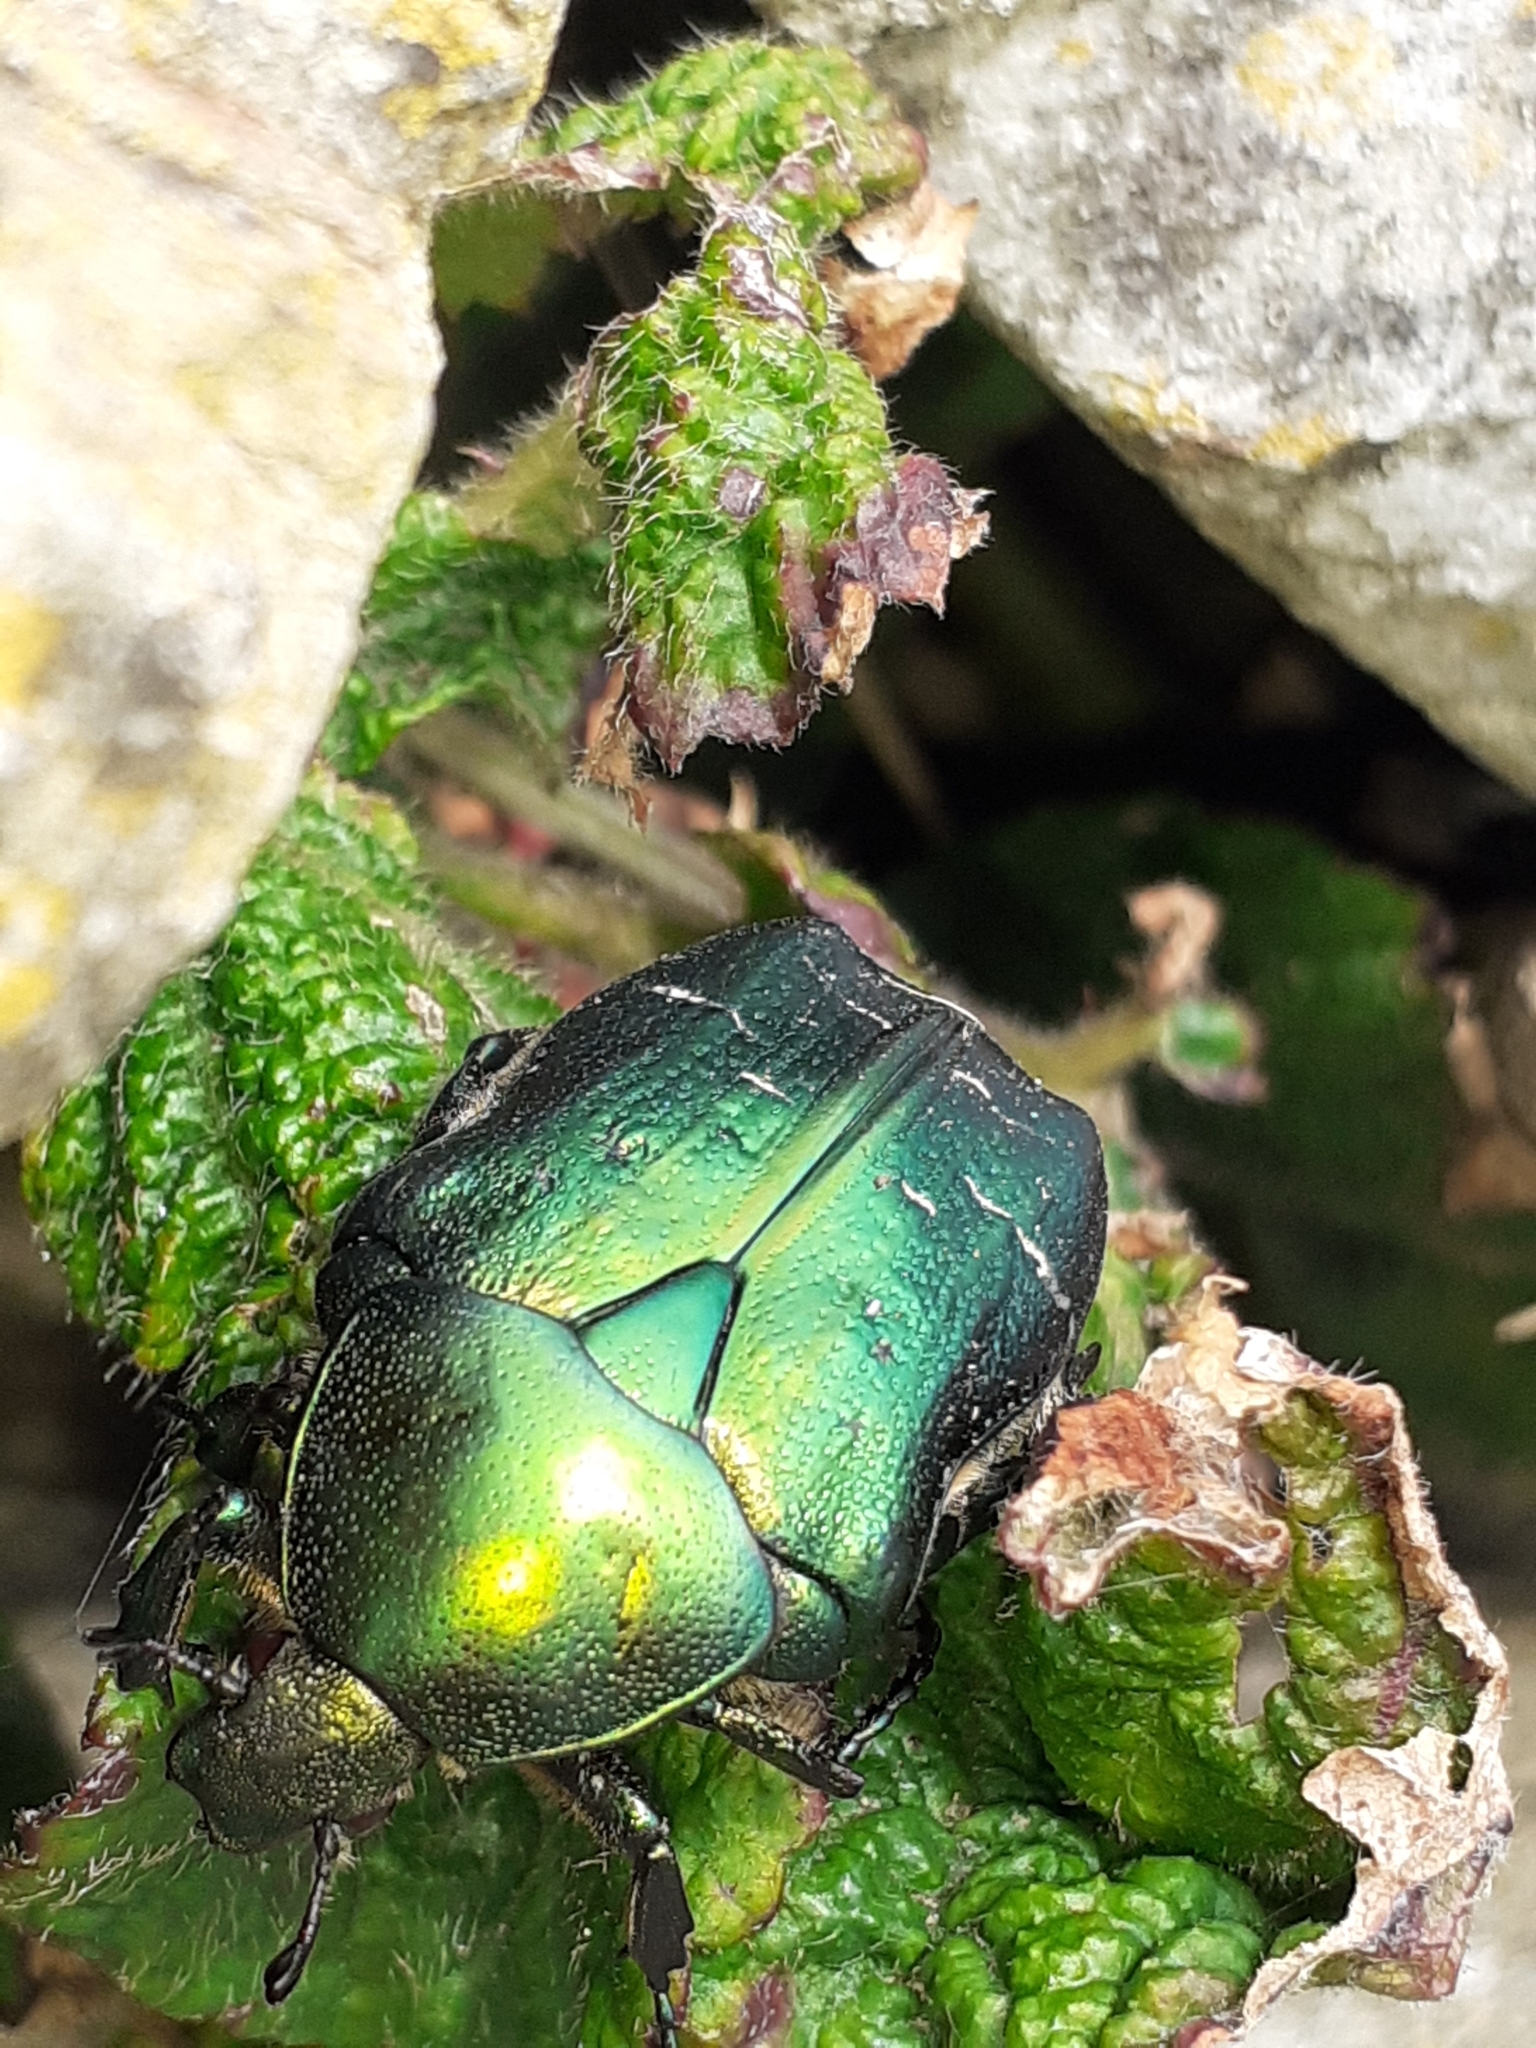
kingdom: Animalia
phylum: Arthropoda
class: Insecta
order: Coleoptera
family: Scarabaeidae
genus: Cetonia
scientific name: Cetonia aurata
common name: Rose chafer
